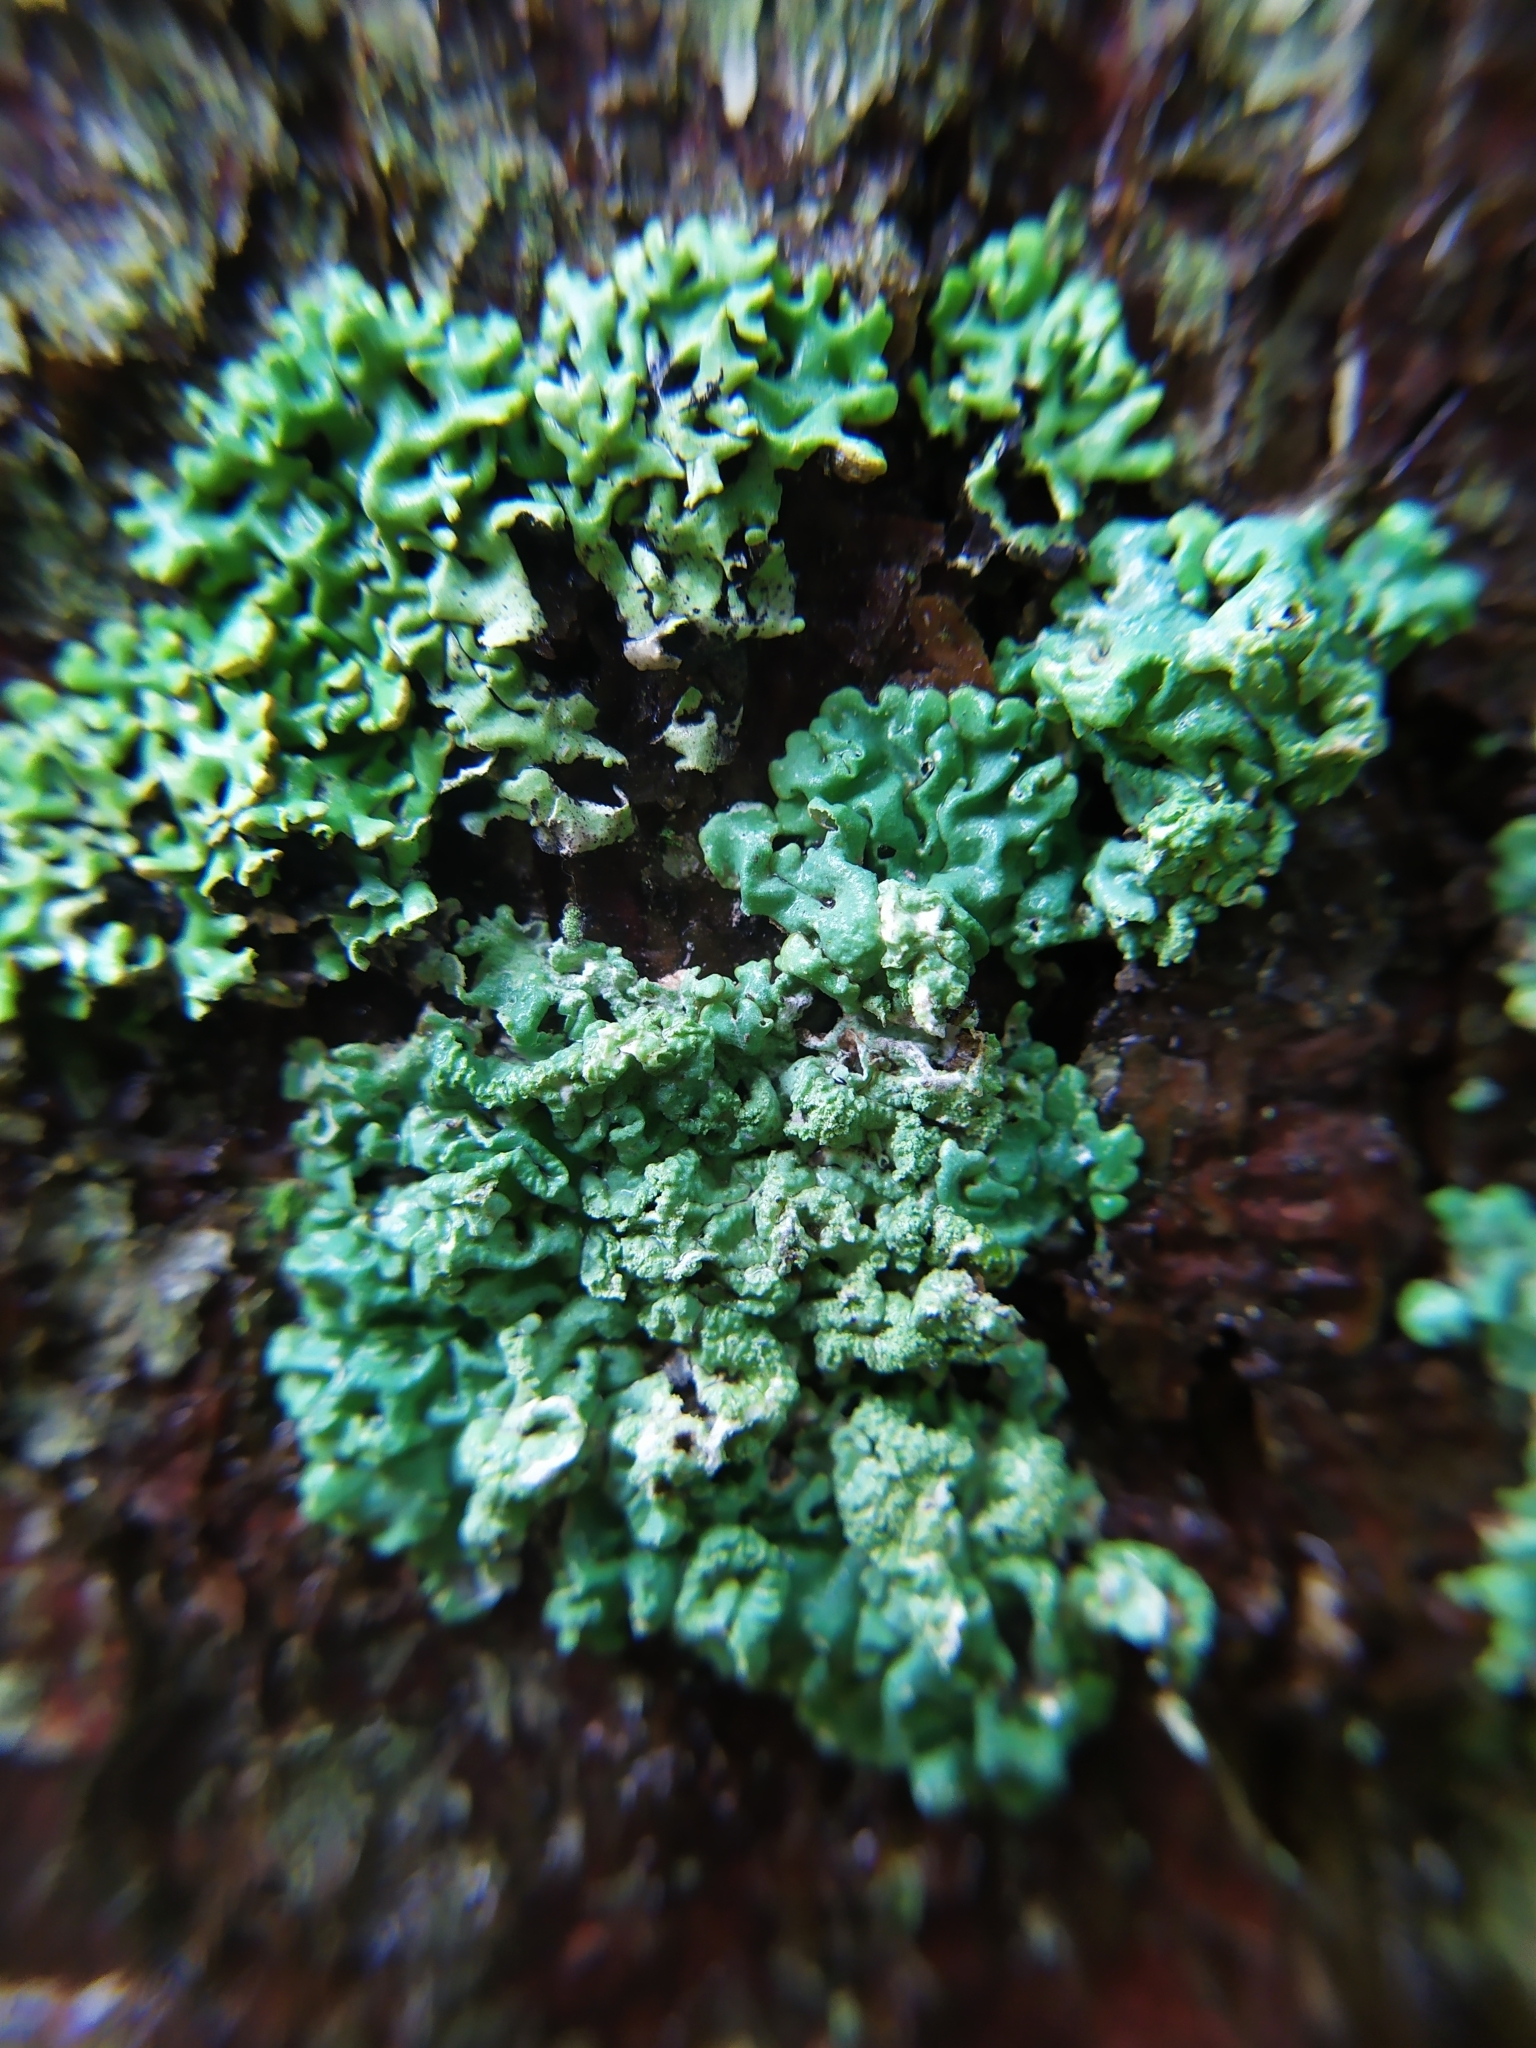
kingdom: Fungi
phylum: Ascomycota
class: Lecanoromycetes
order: Lecanorales
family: Parmeliaceae
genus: Hypogymnia
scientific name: Hypogymnia farinacea
